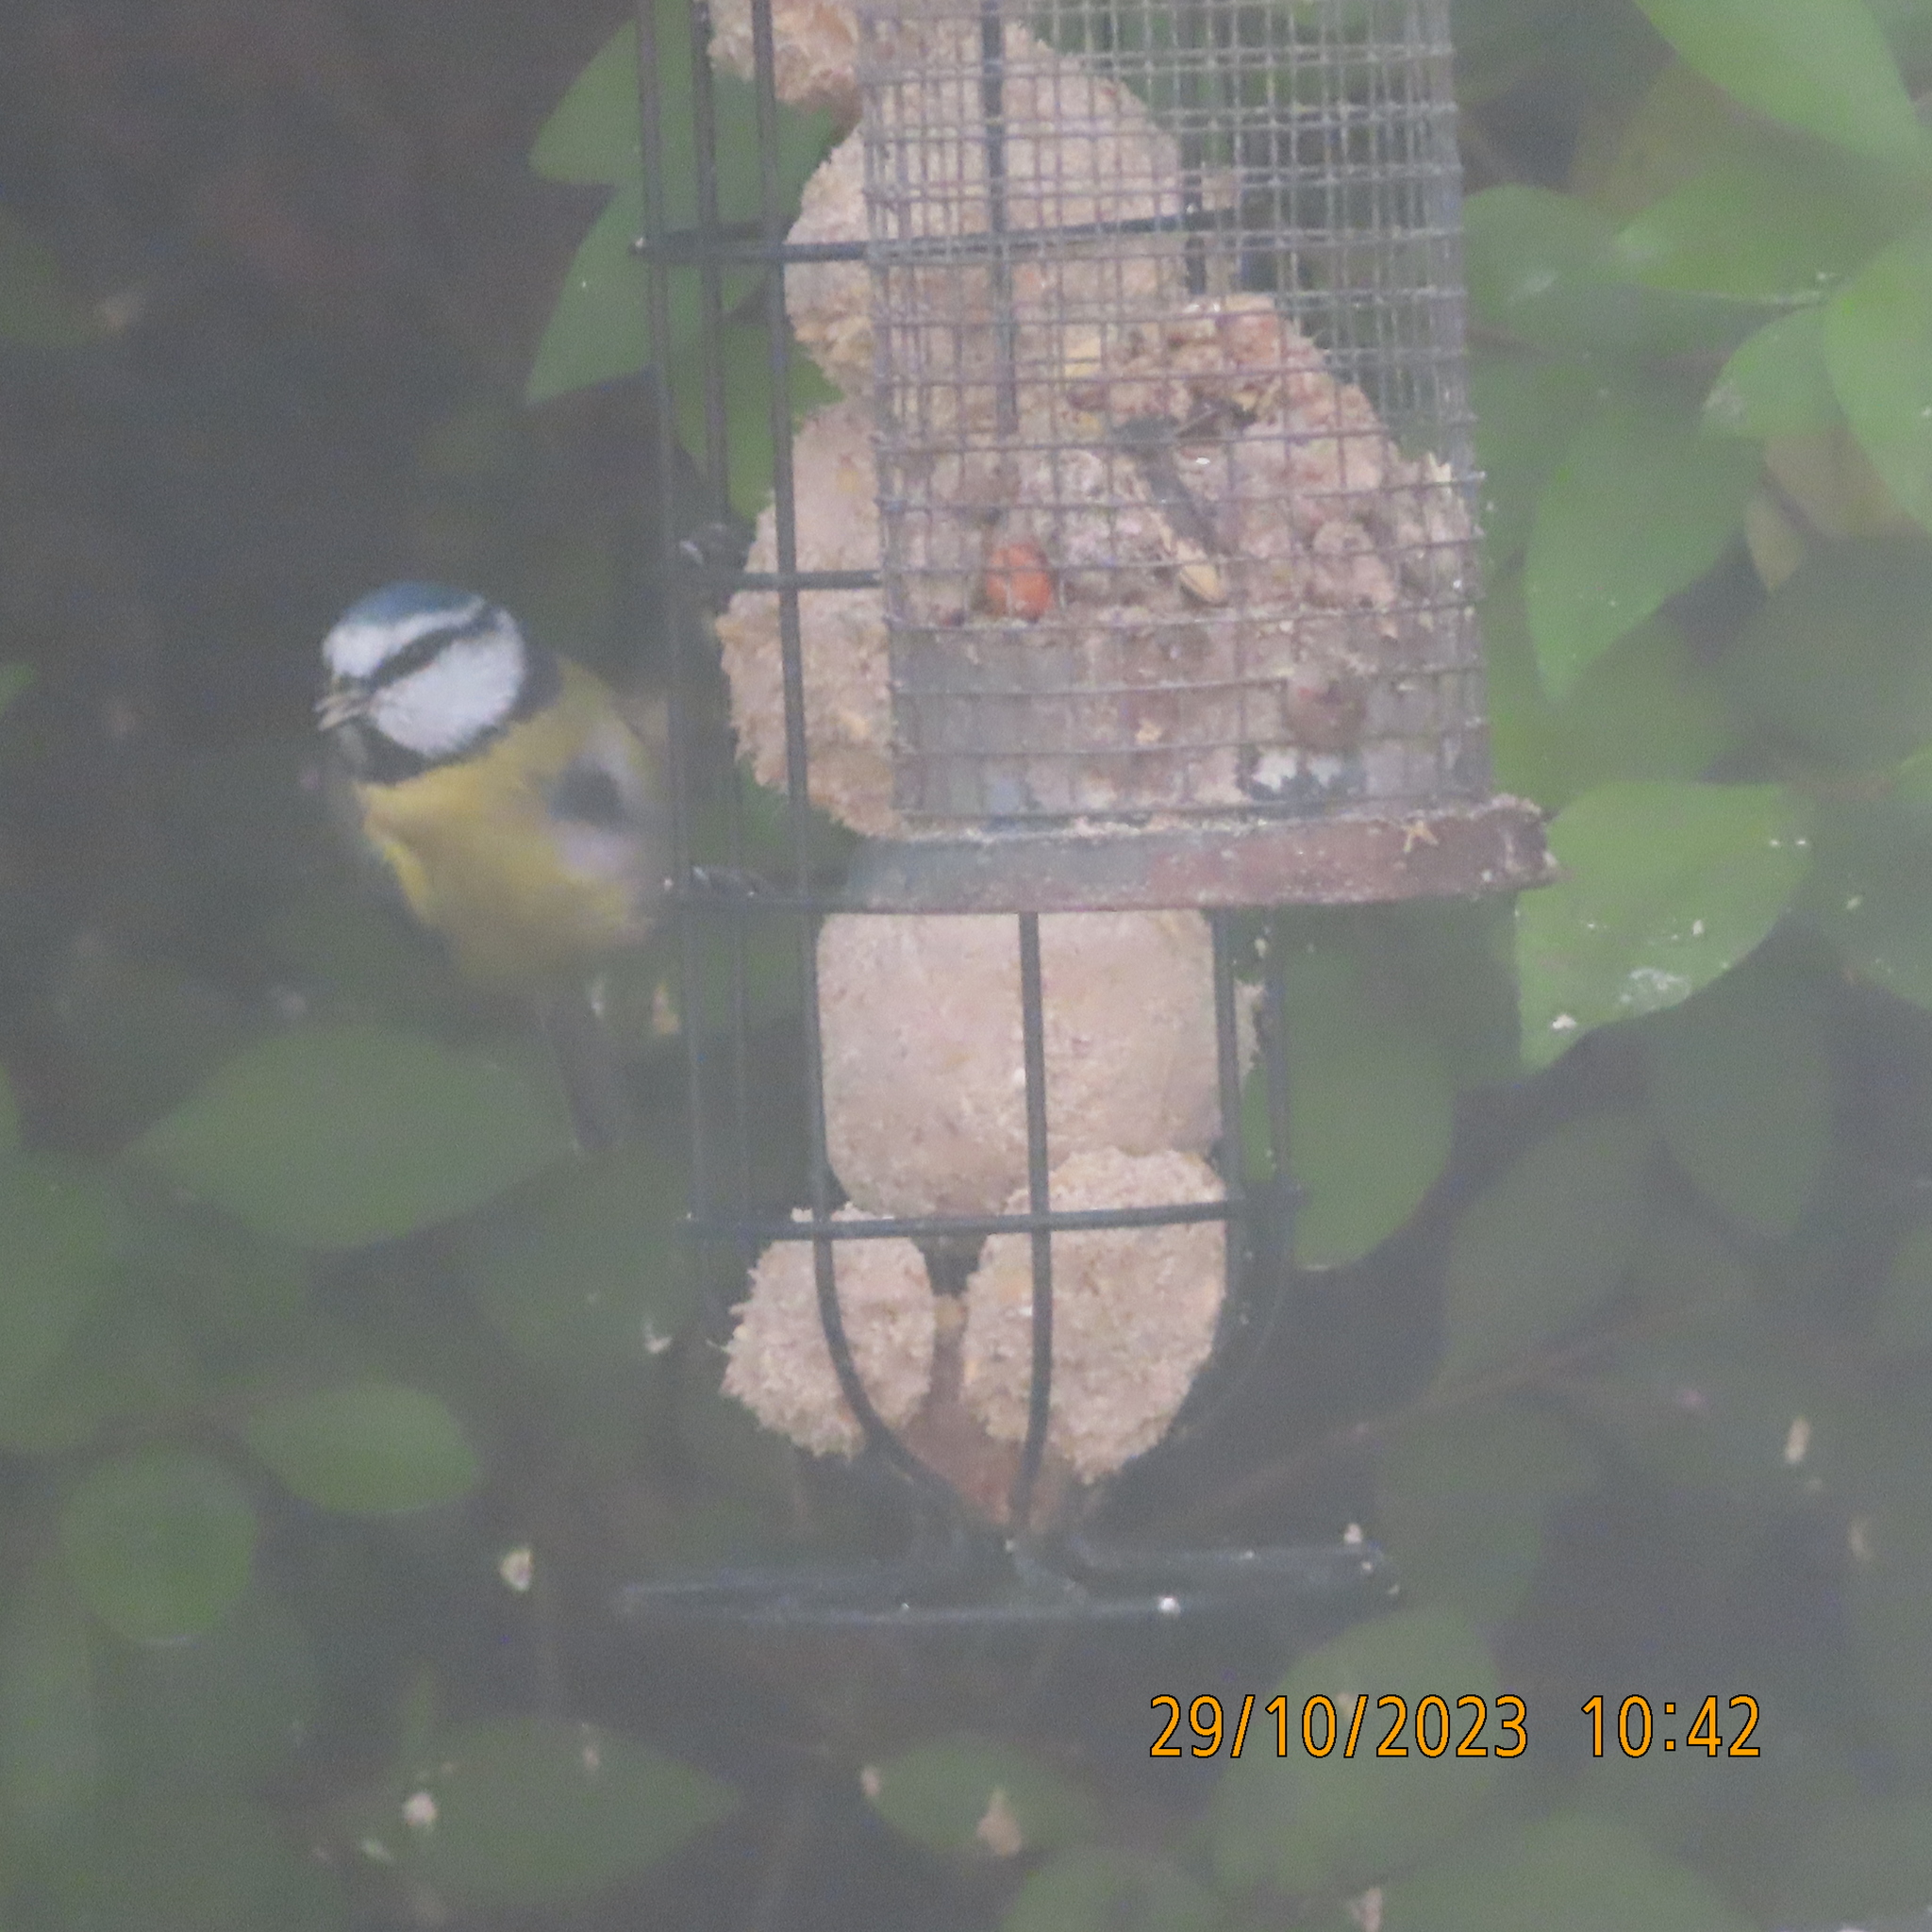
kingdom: Animalia
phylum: Chordata
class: Aves
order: Passeriformes
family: Paridae
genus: Cyanistes
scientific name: Cyanistes caeruleus
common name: Eurasian blue tit
